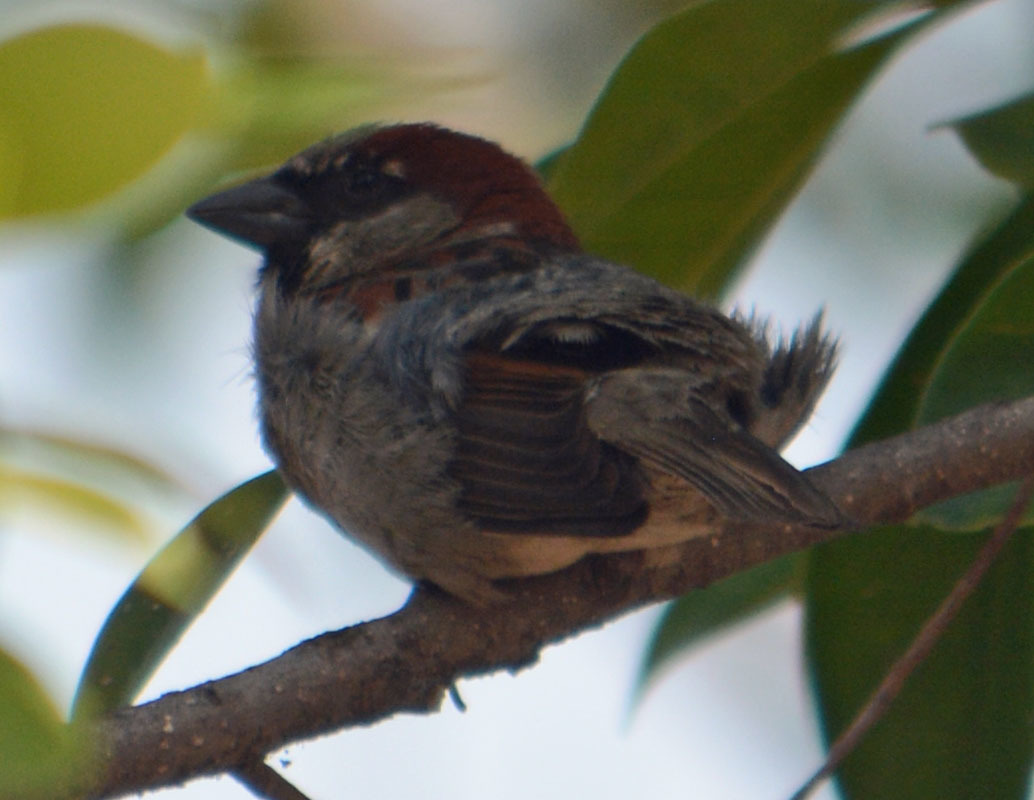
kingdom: Animalia
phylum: Chordata
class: Aves
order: Passeriformes
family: Passeridae
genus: Passer
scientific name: Passer domesticus
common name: House sparrow
